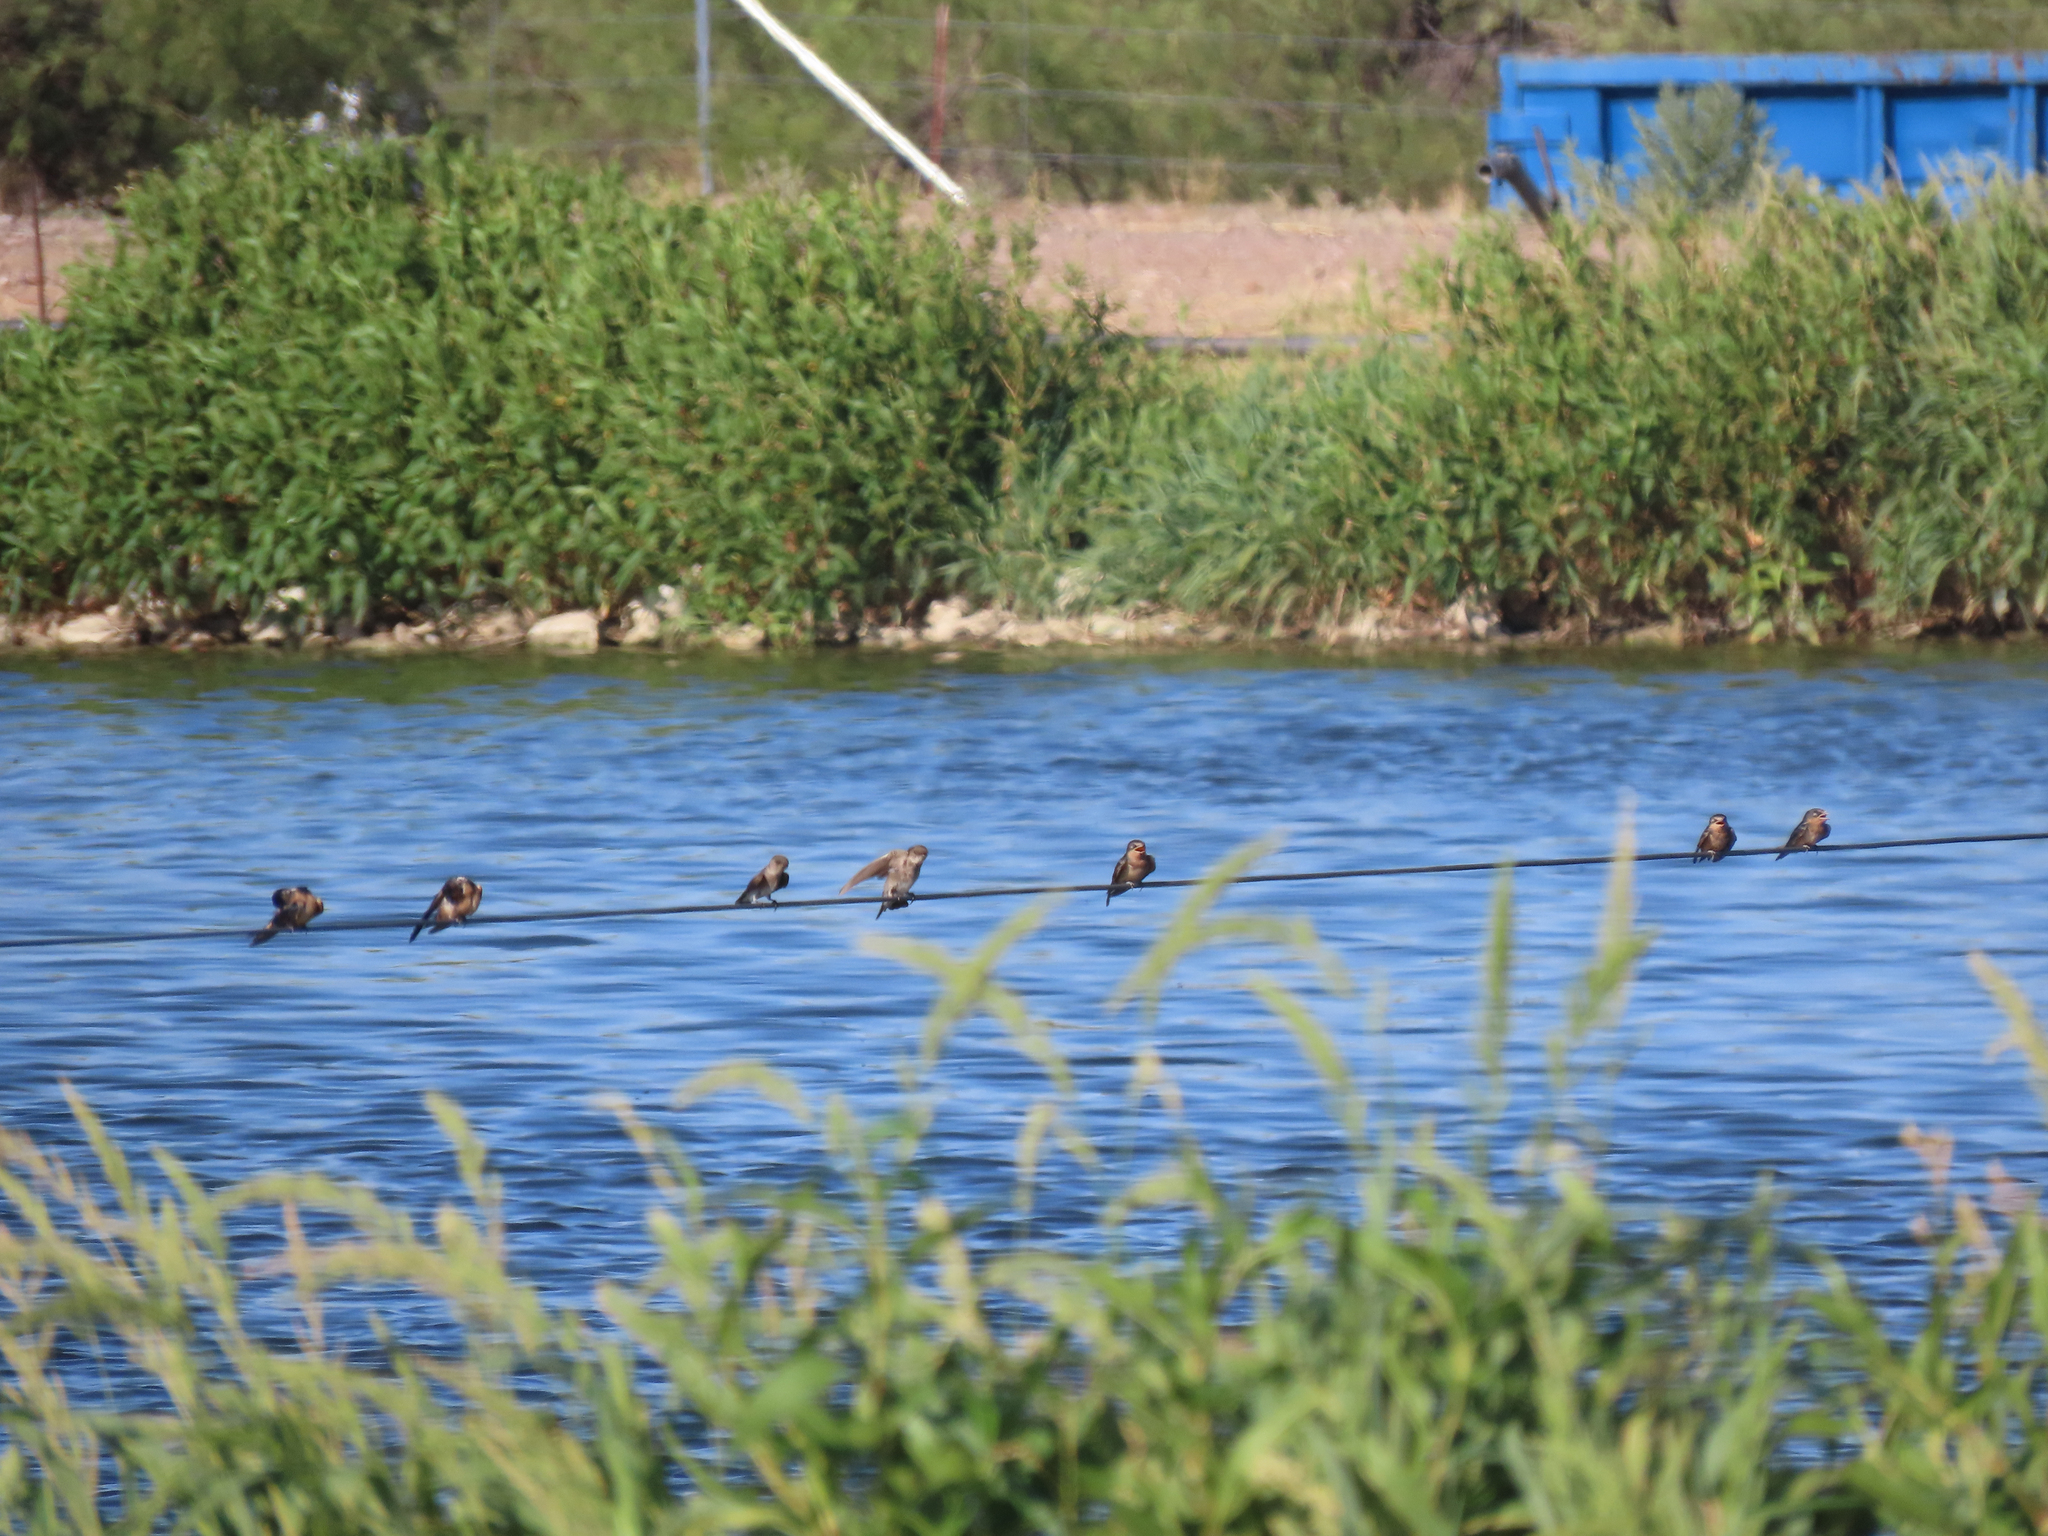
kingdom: Animalia
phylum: Chordata
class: Aves
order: Passeriformes
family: Hirundinidae
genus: Stelgidopteryx
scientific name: Stelgidopteryx serripennis
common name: Northern rough-winged swallow
